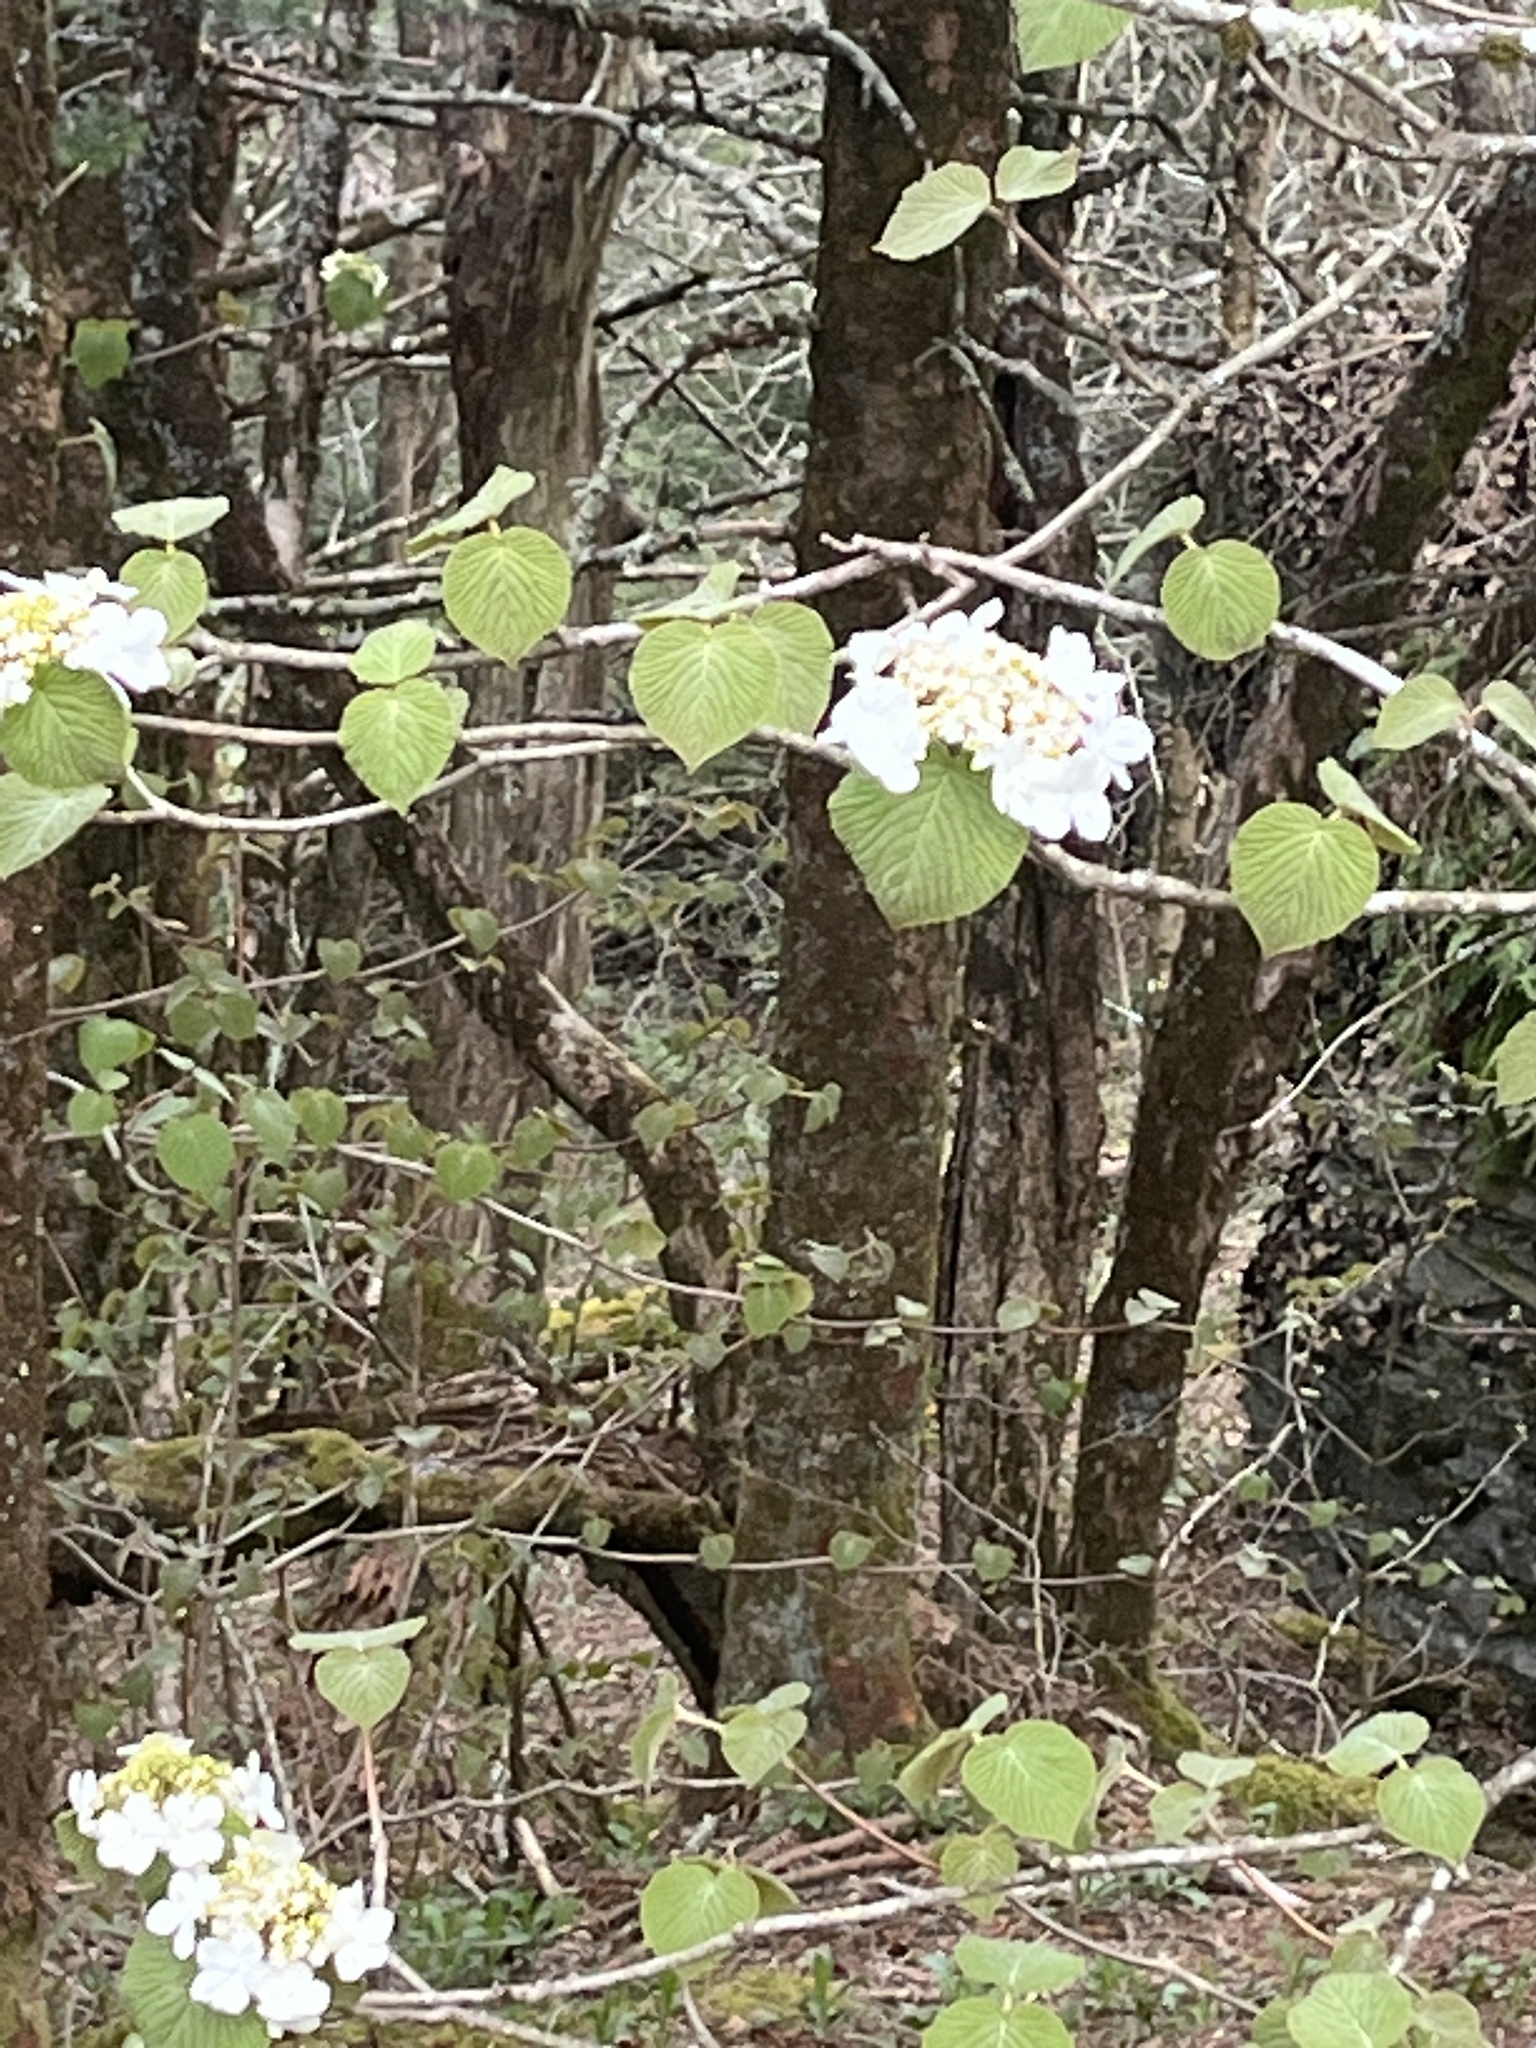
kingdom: Plantae
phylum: Tracheophyta
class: Magnoliopsida
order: Dipsacales
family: Viburnaceae
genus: Viburnum
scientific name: Viburnum lantanoides
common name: Hobblebush
